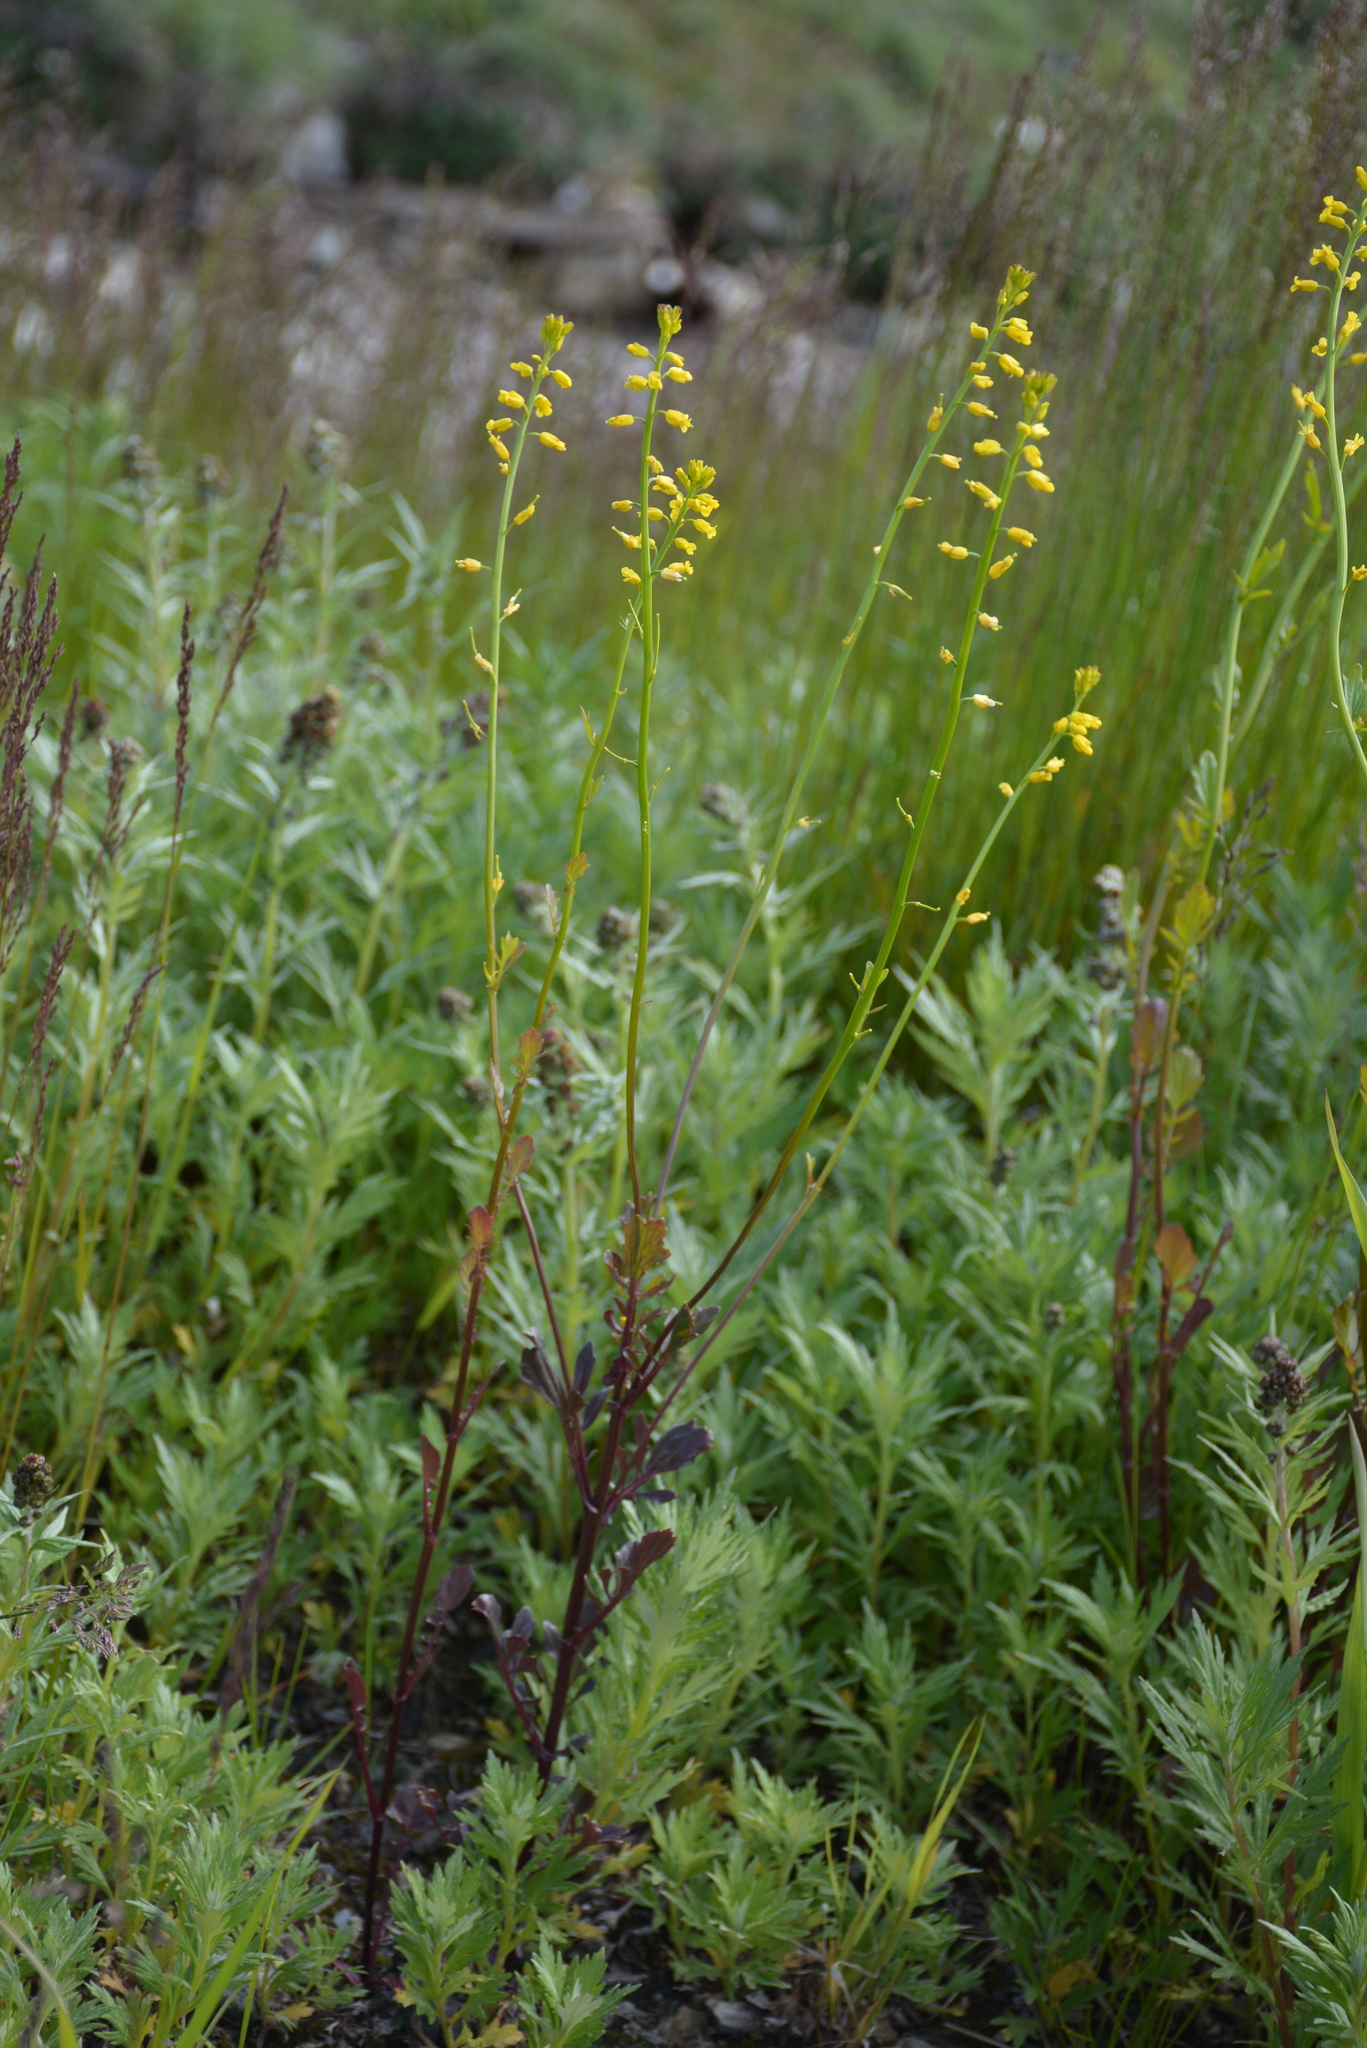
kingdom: Plantae
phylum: Tracheophyta
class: Magnoliopsida
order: Brassicales
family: Brassicaceae
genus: Barbarea
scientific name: Barbarea orthoceras
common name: American wintercress
